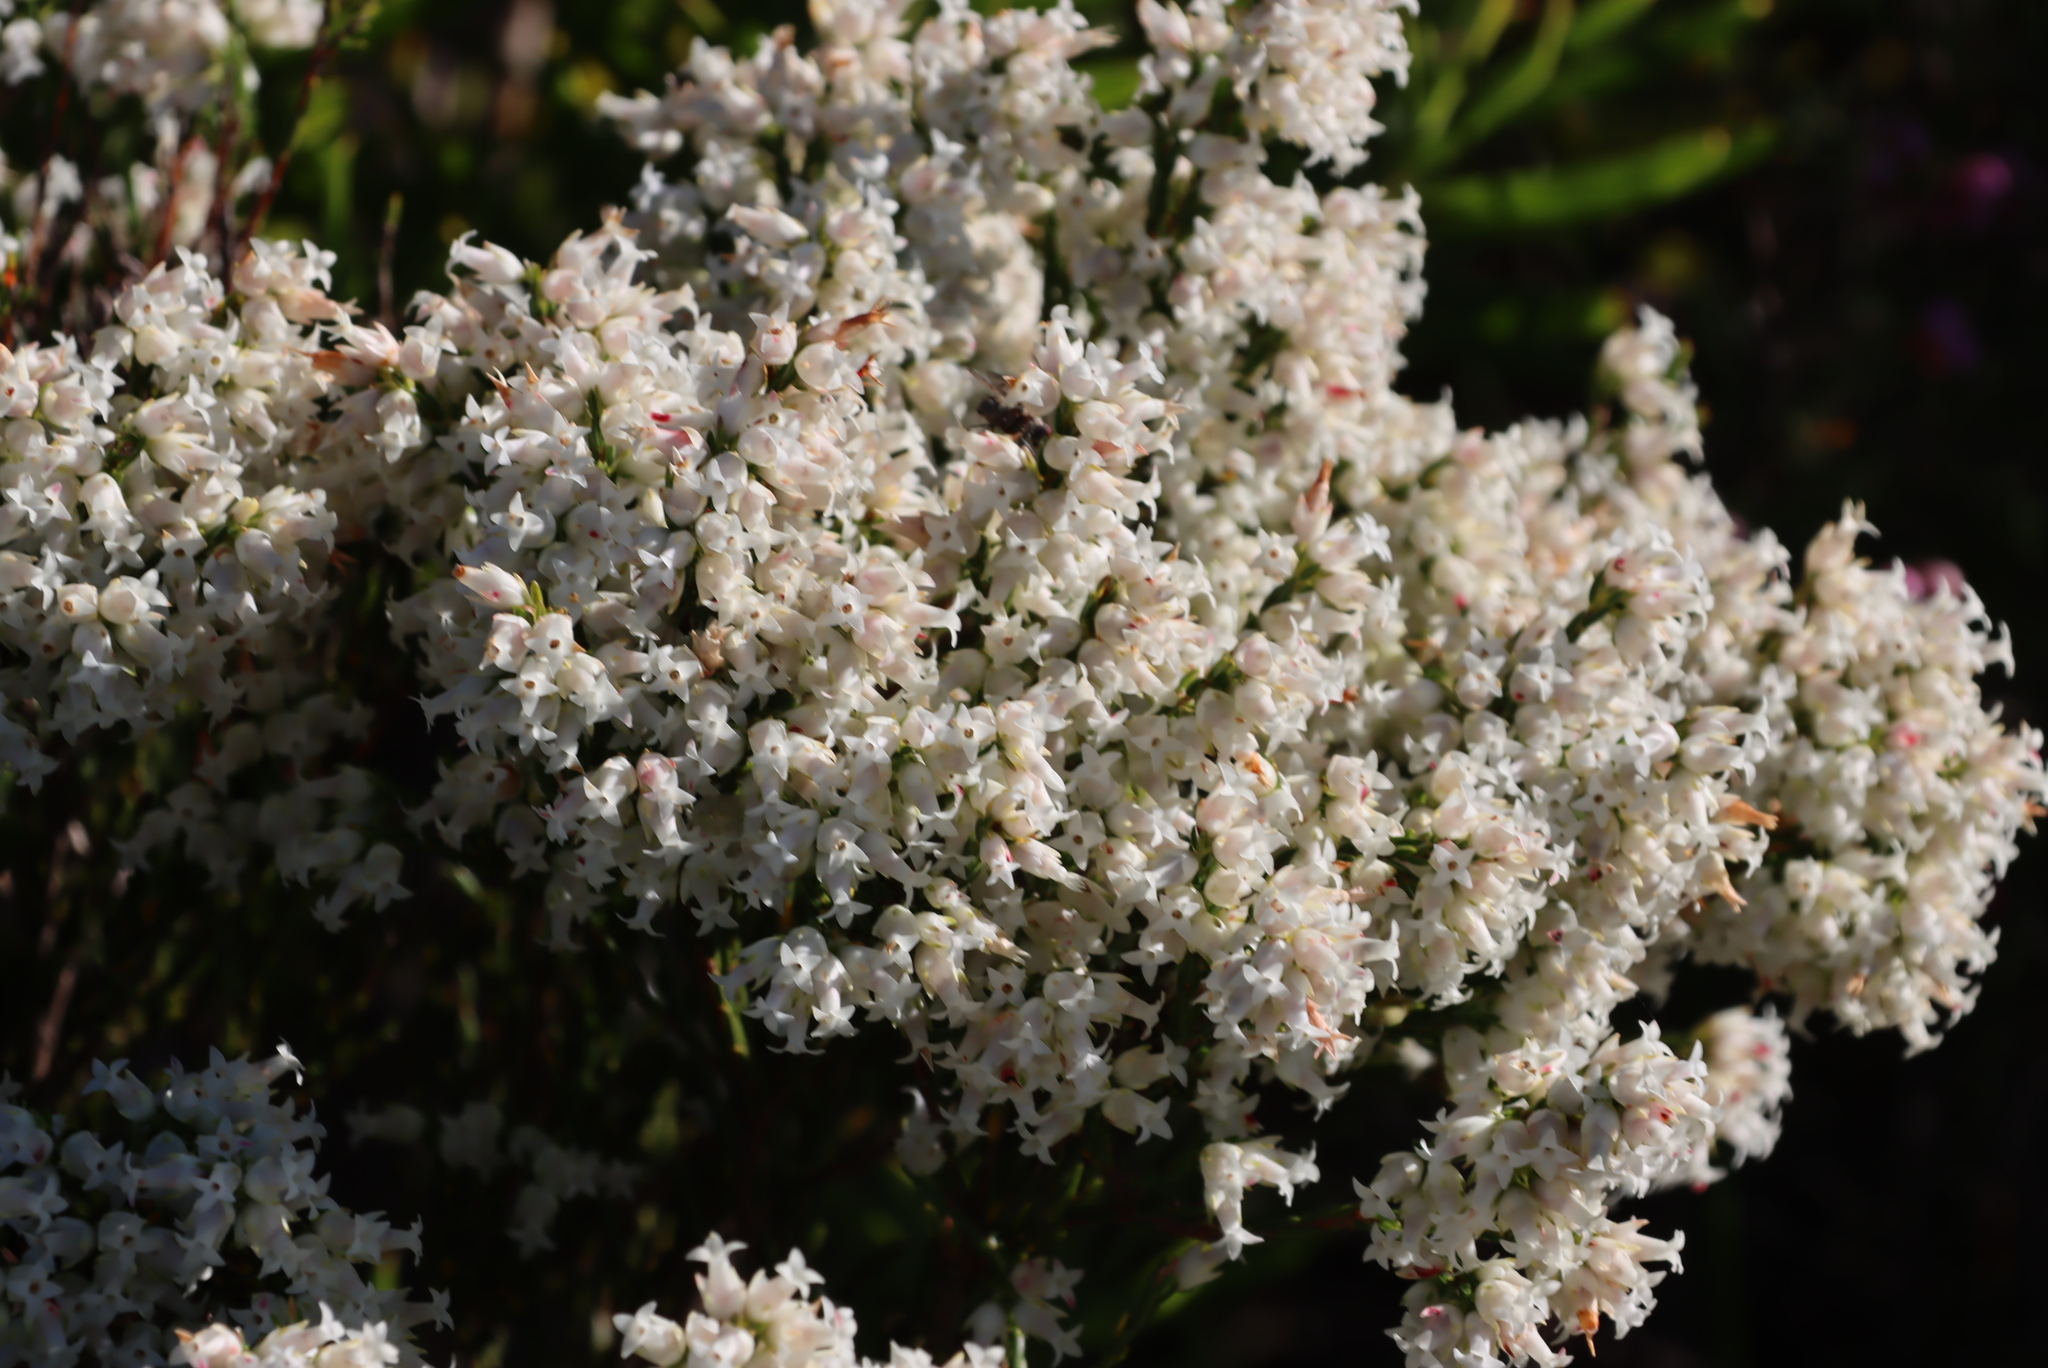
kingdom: Plantae
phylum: Tracheophyta
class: Magnoliopsida
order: Ericales
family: Ericaceae
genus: Erica
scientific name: Erica lutea
